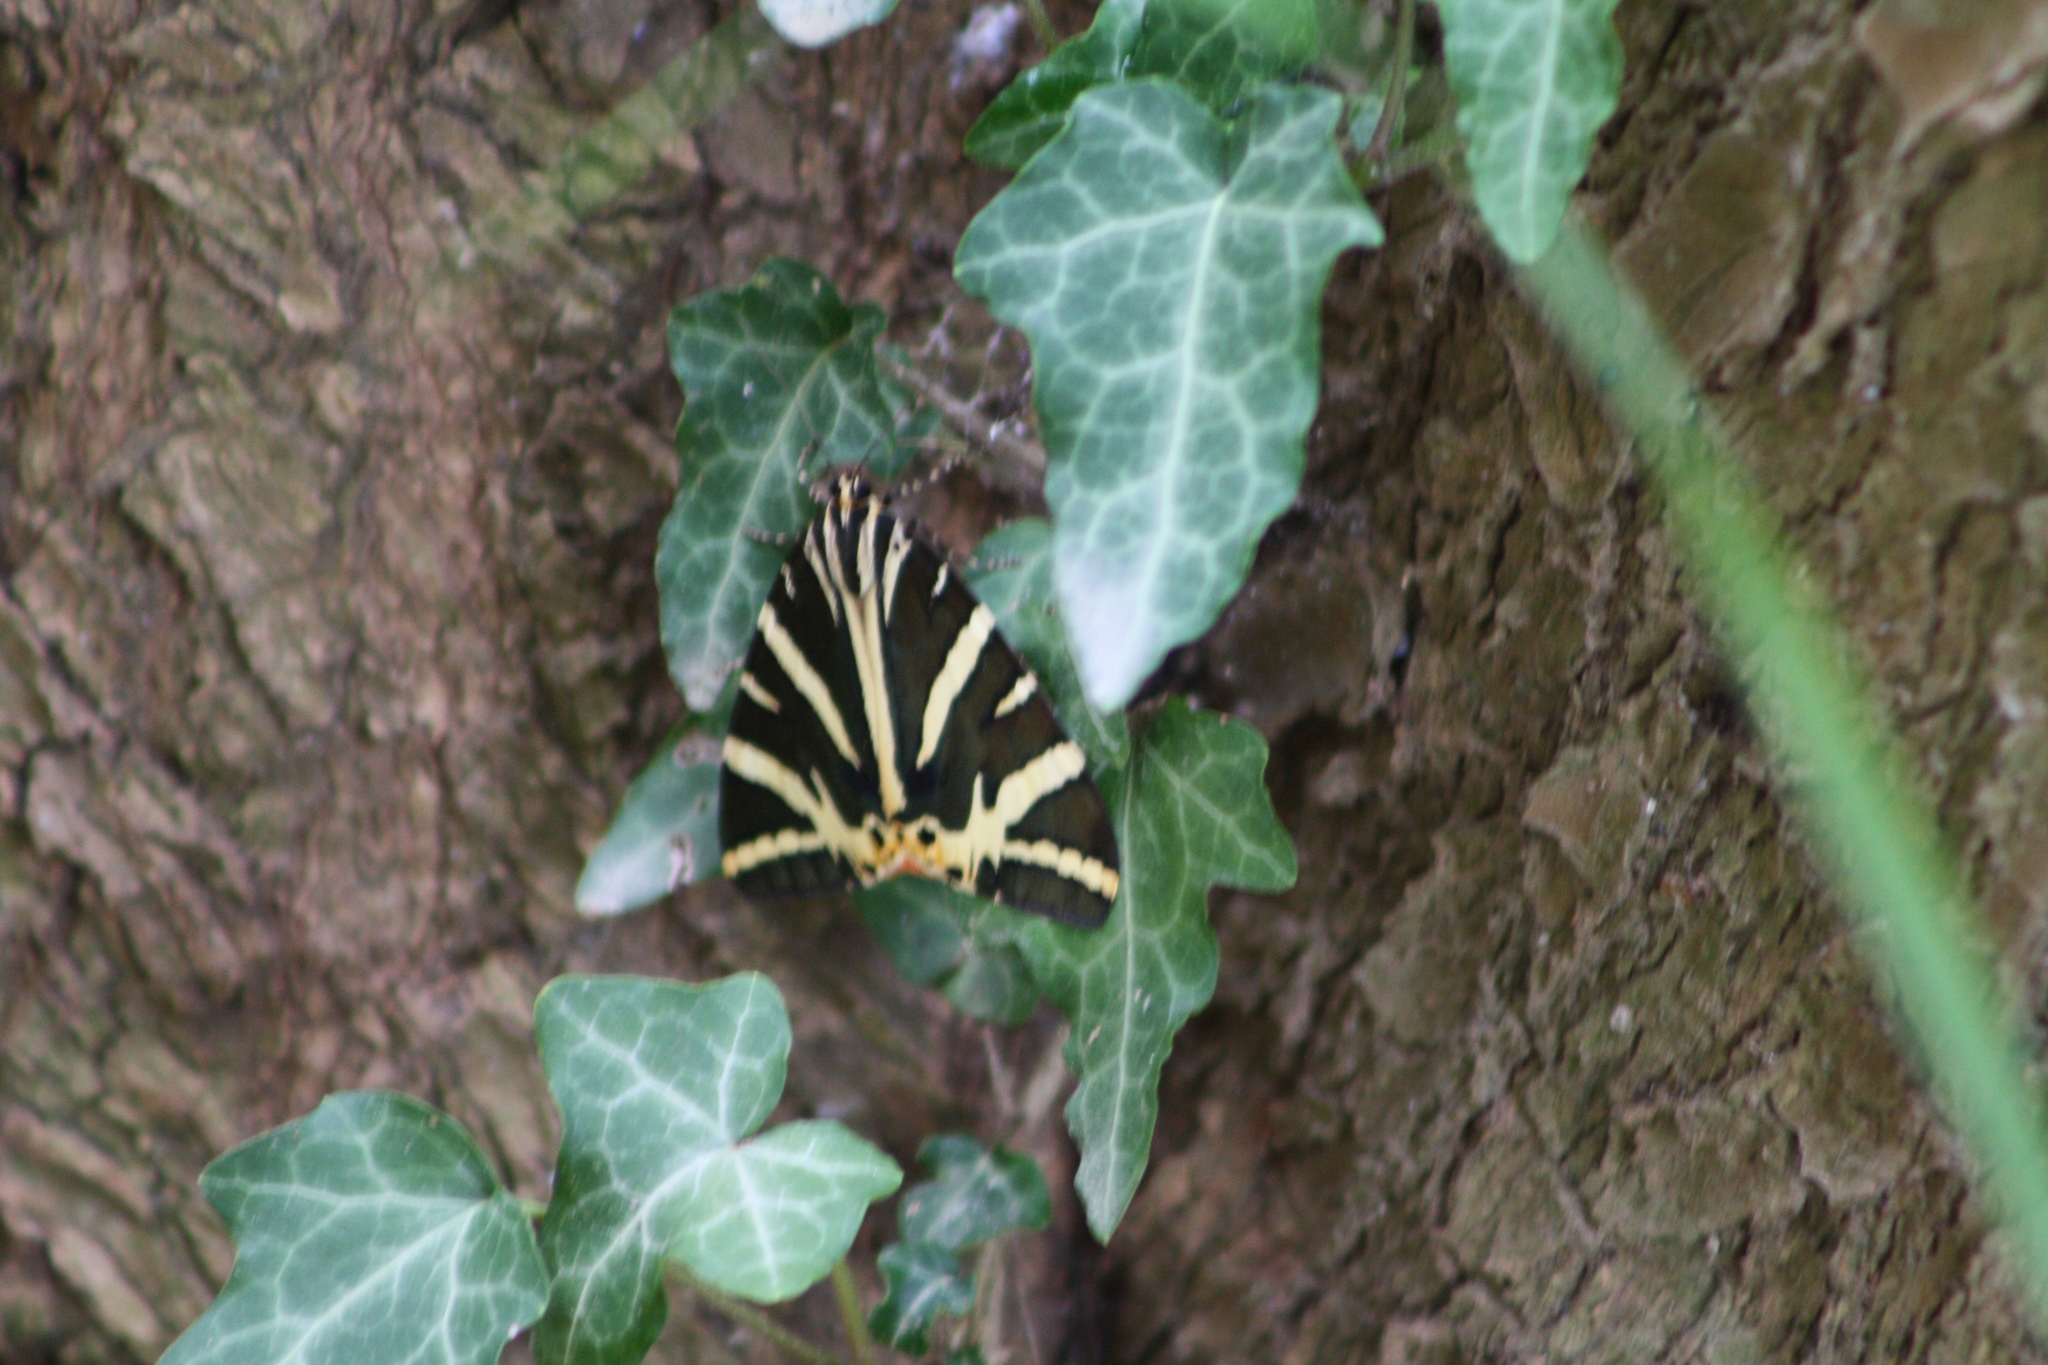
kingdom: Animalia
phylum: Arthropoda
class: Insecta
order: Lepidoptera
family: Erebidae
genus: Euplagia
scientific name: Euplagia quadripunctaria
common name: Jersey tiger
